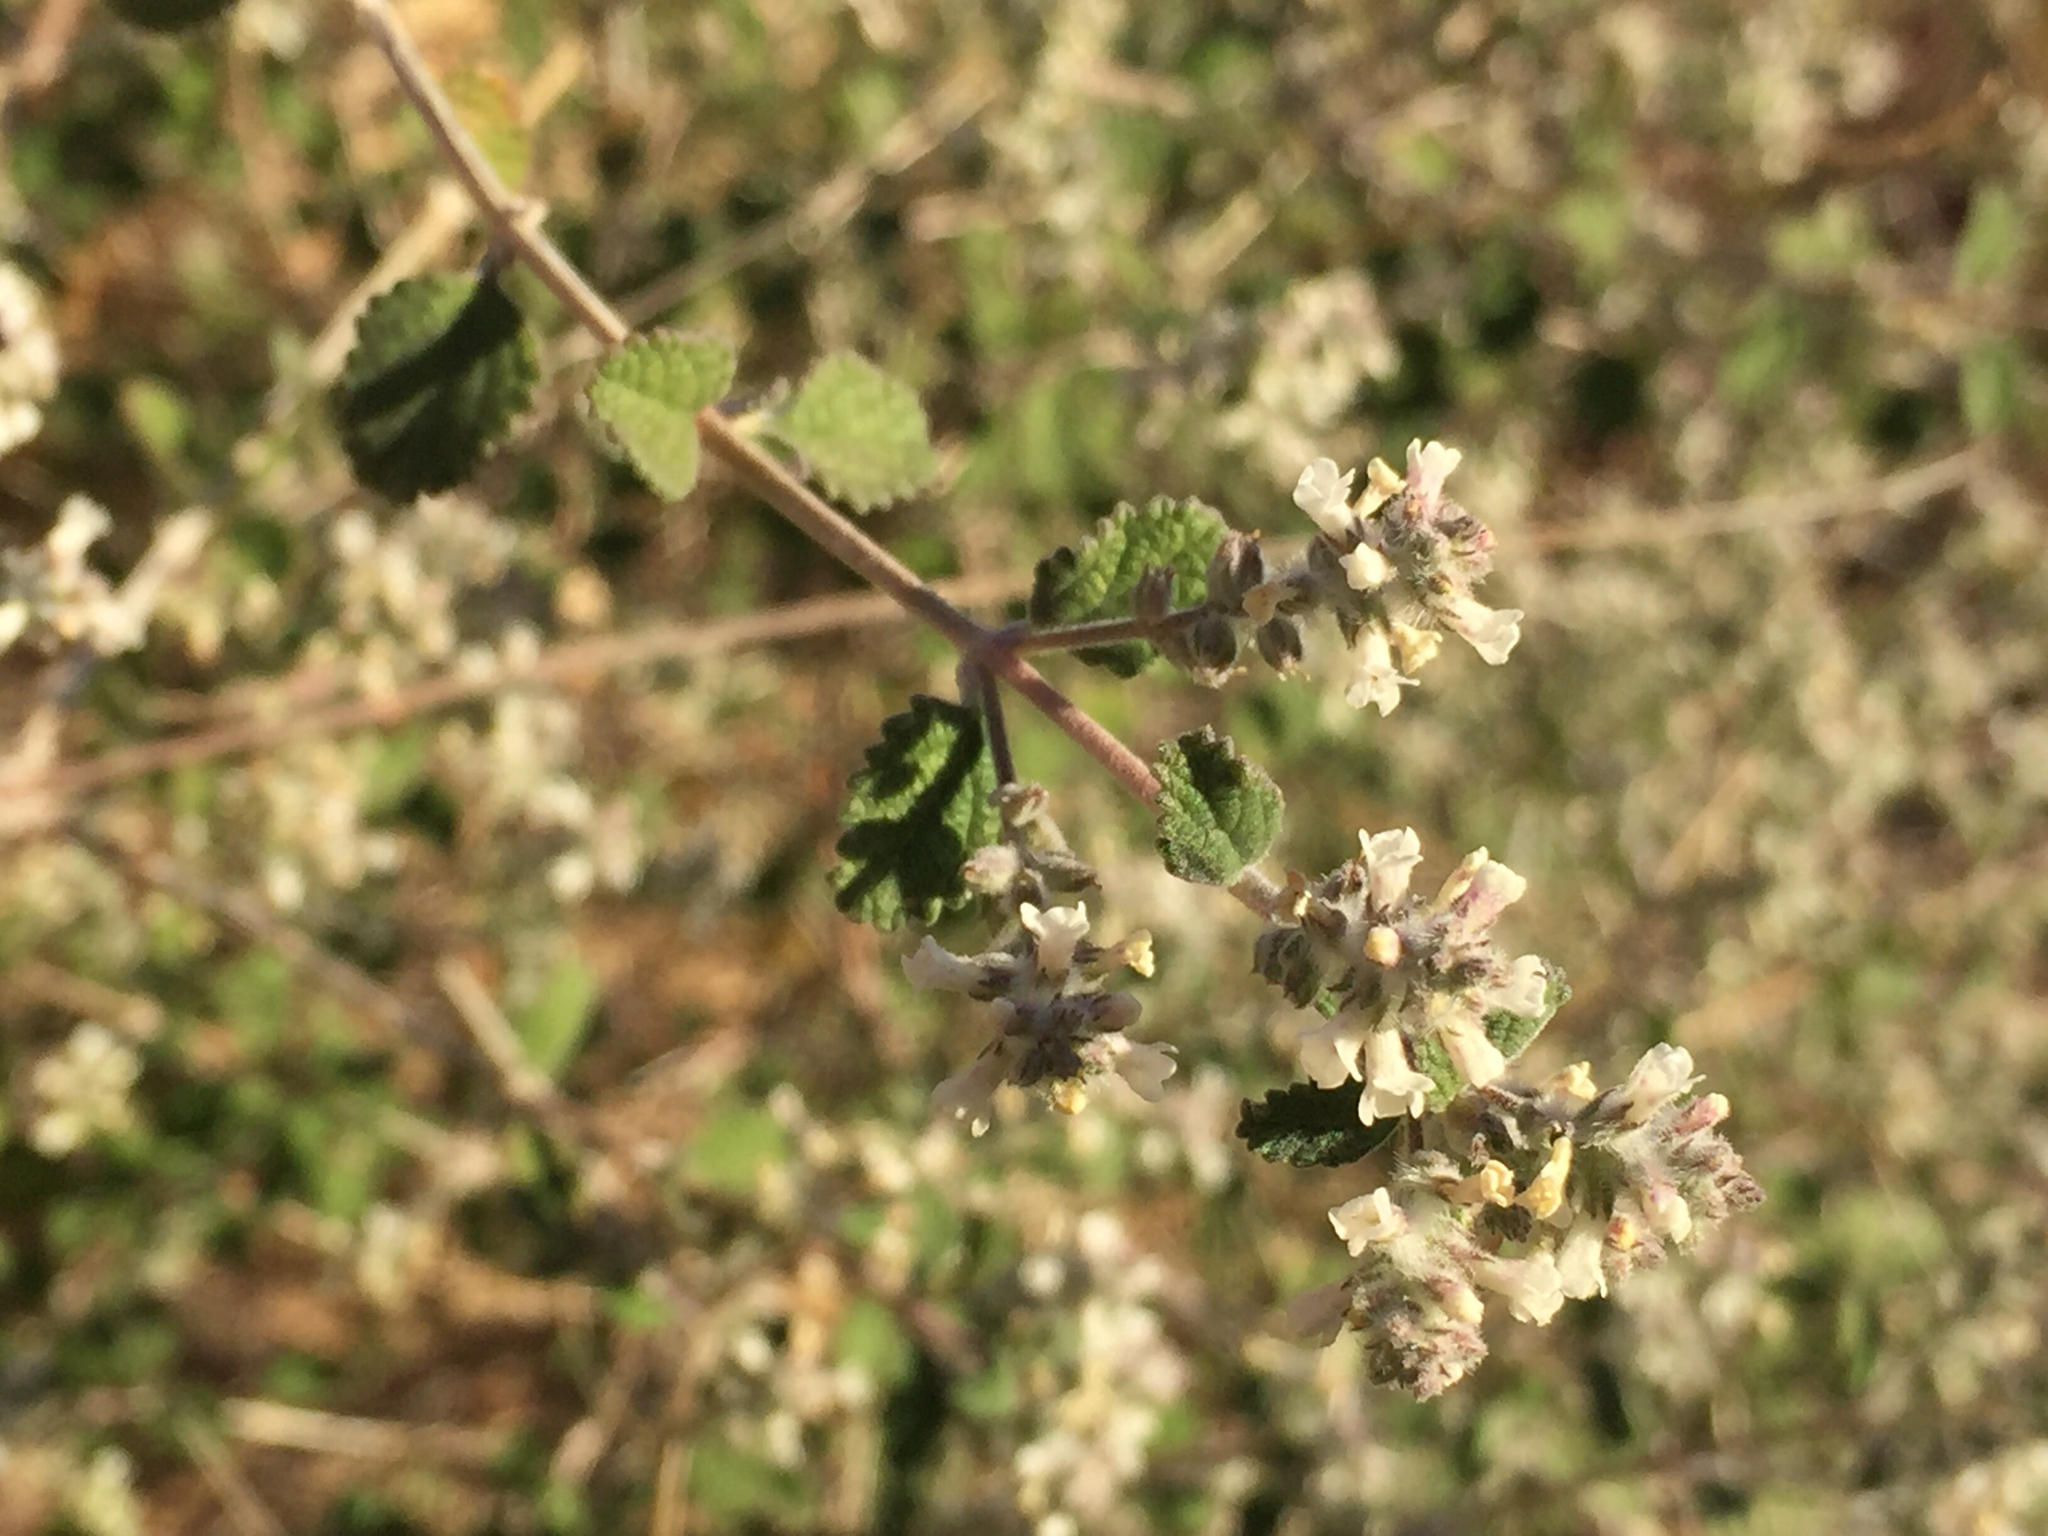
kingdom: Plantae
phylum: Tracheophyta
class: Magnoliopsida
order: Lamiales
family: Verbenaceae
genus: Aloysia
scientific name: Aloysia wrightii
